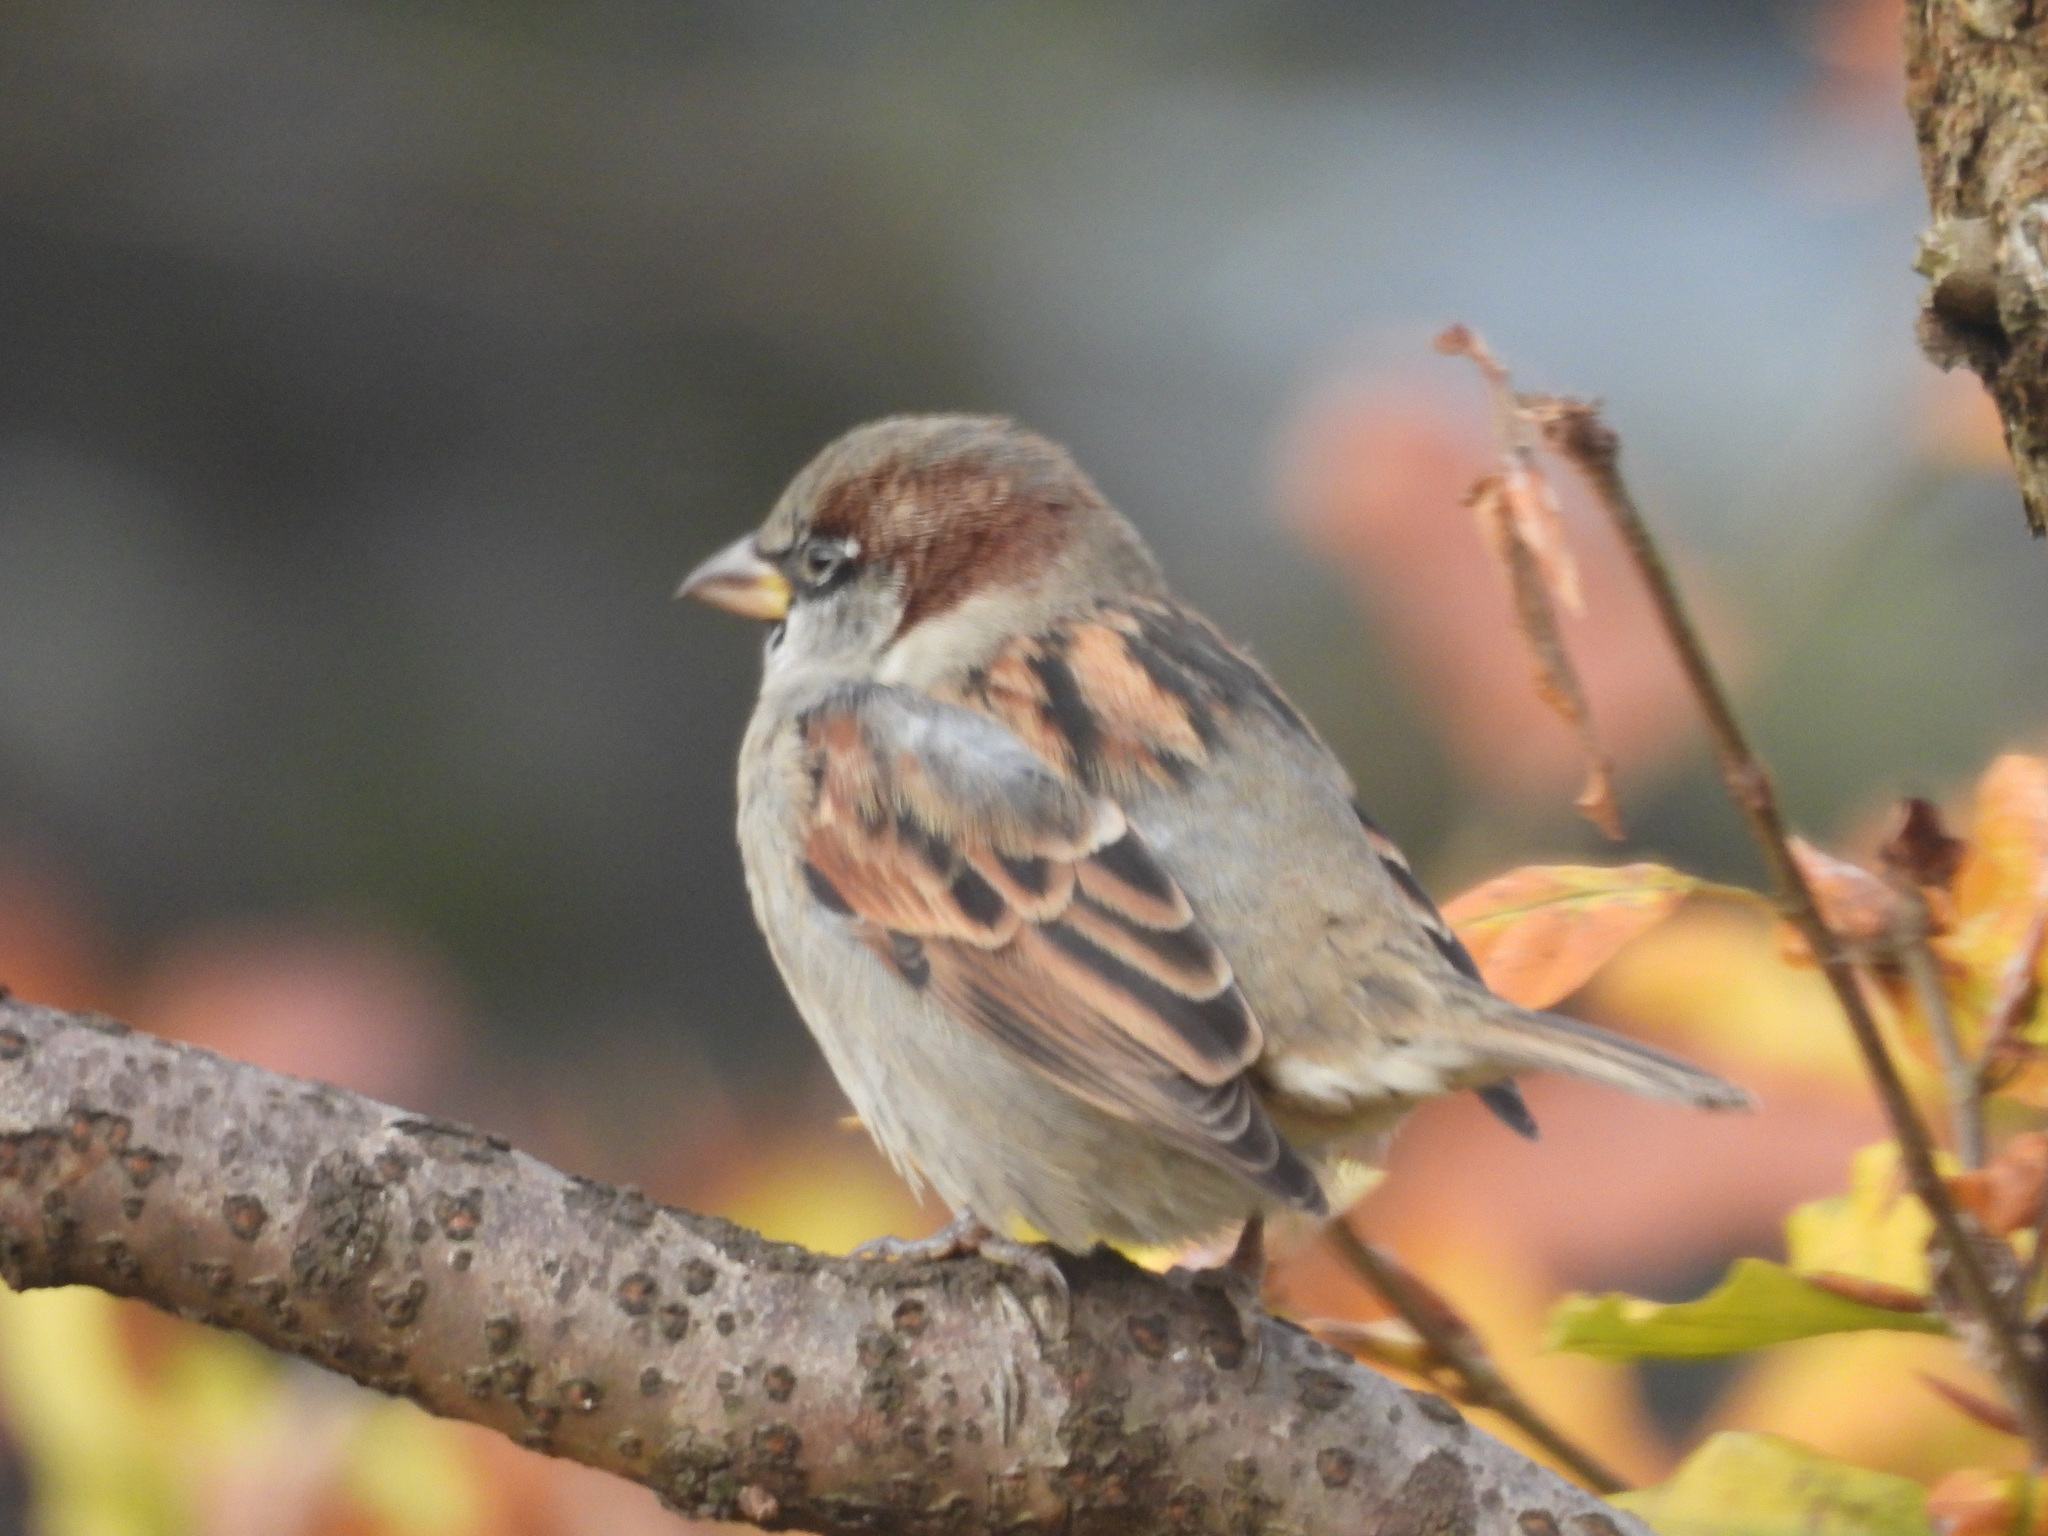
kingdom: Animalia
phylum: Chordata
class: Aves
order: Passeriformes
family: Passeridae
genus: Passer
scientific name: Passer domesticus
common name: House sparrow
